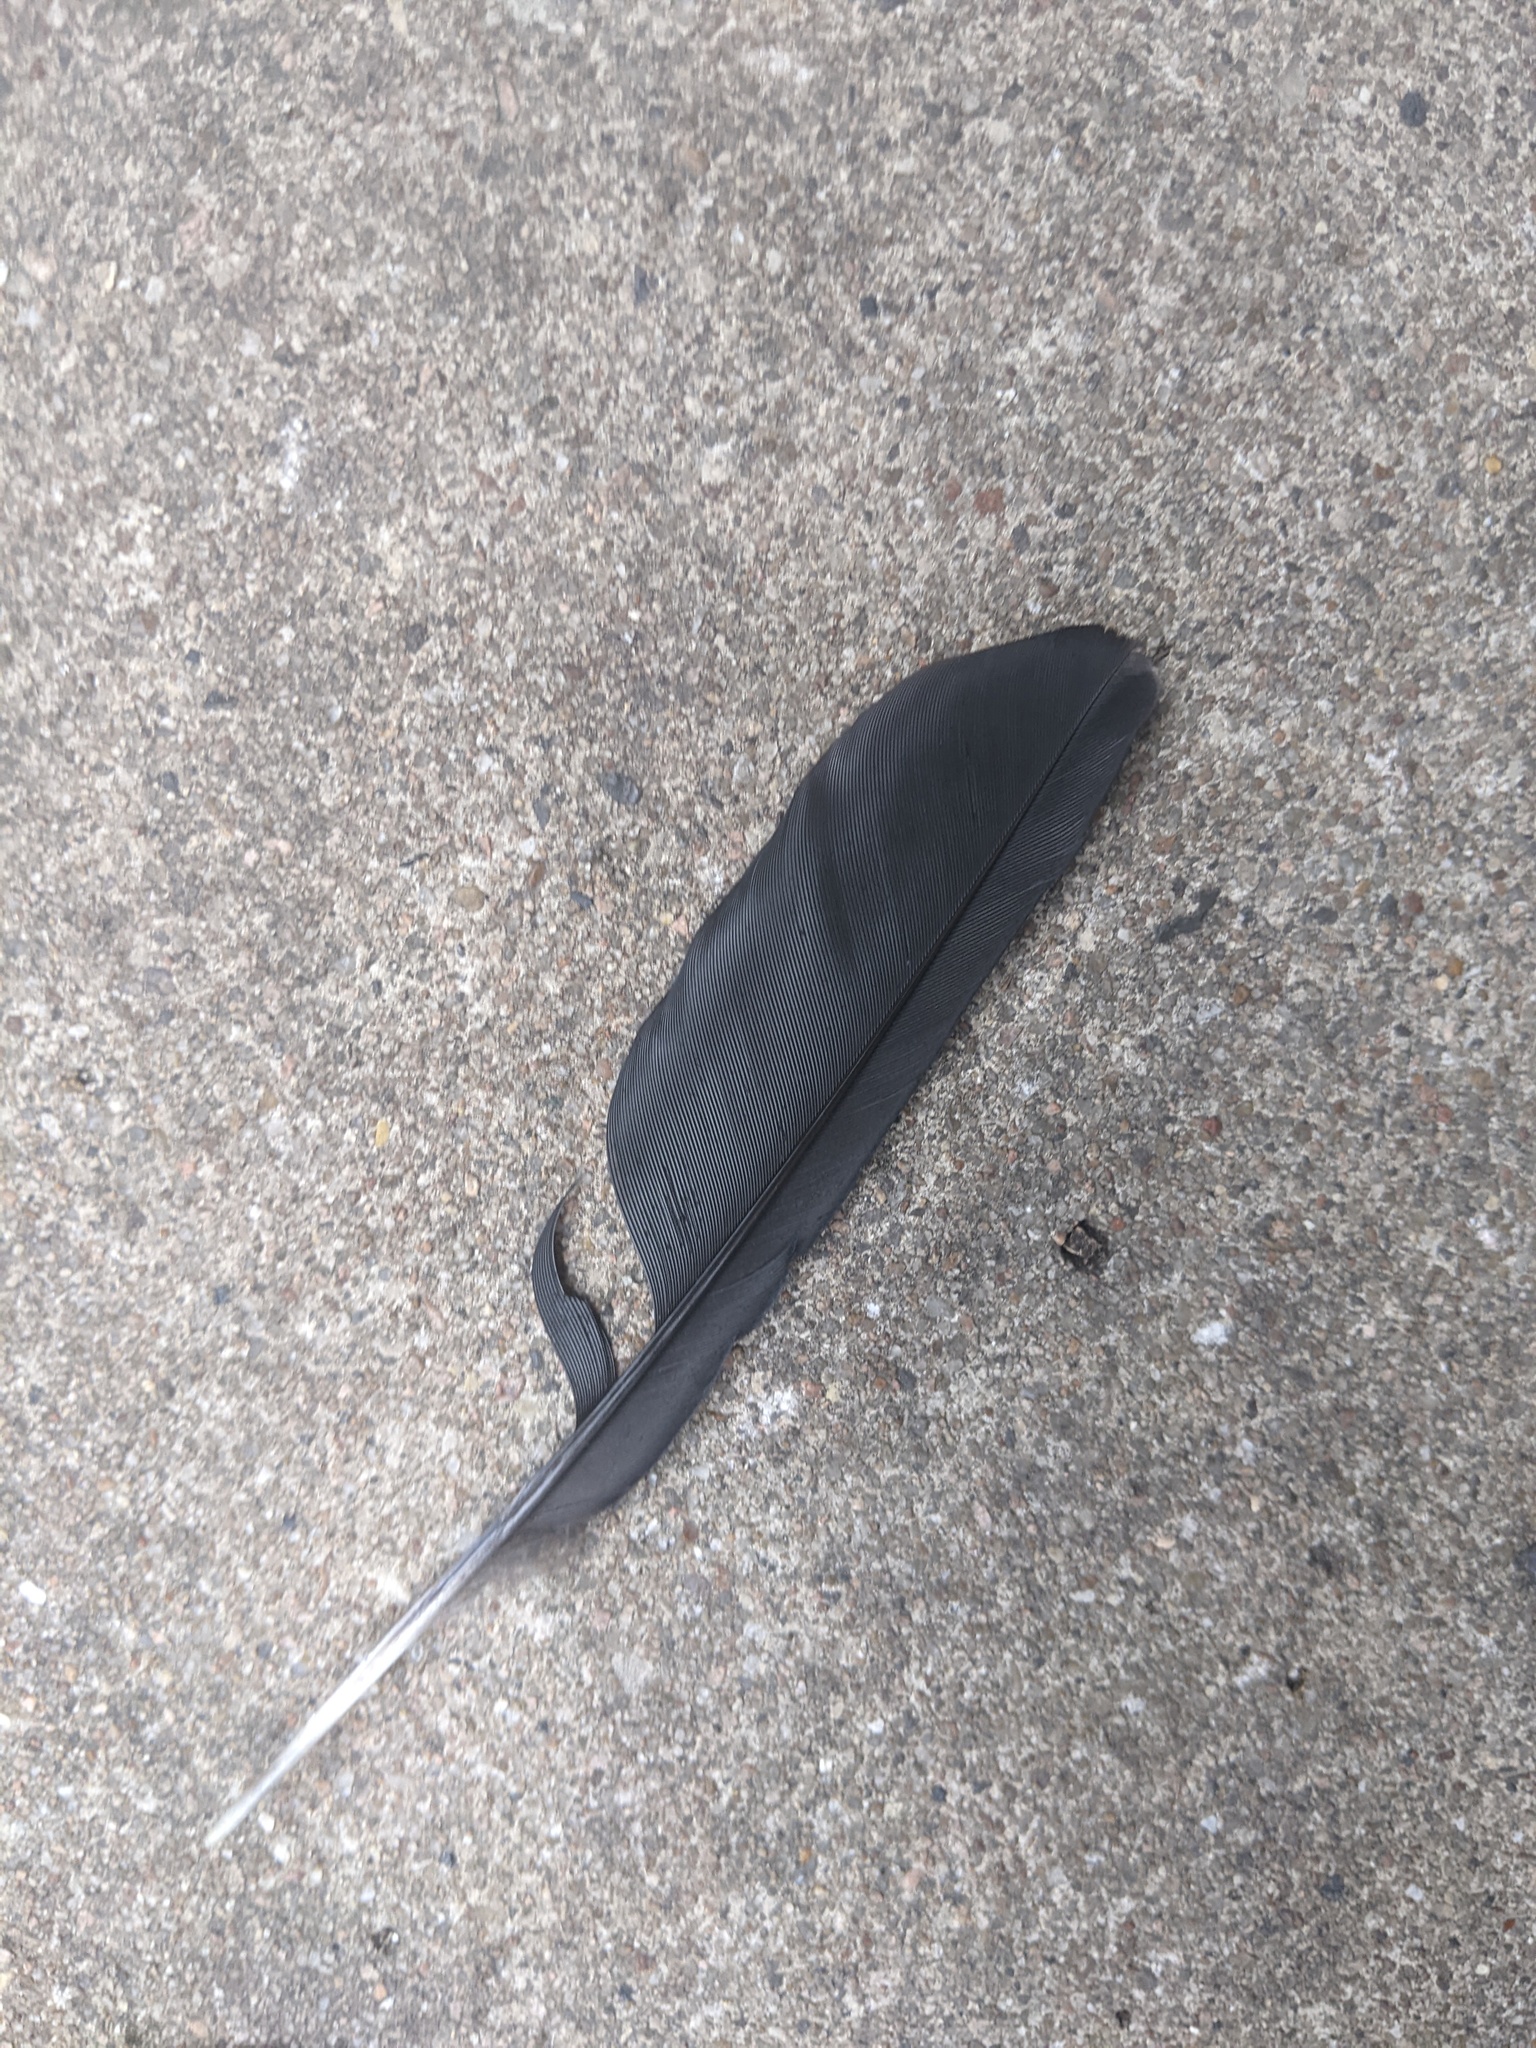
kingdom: Animalia
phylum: Chordata
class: Aves
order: Passeriformes
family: Icteridae
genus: Quiscalus
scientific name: Quiscalus mexicanus
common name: Great-tailed grackle
